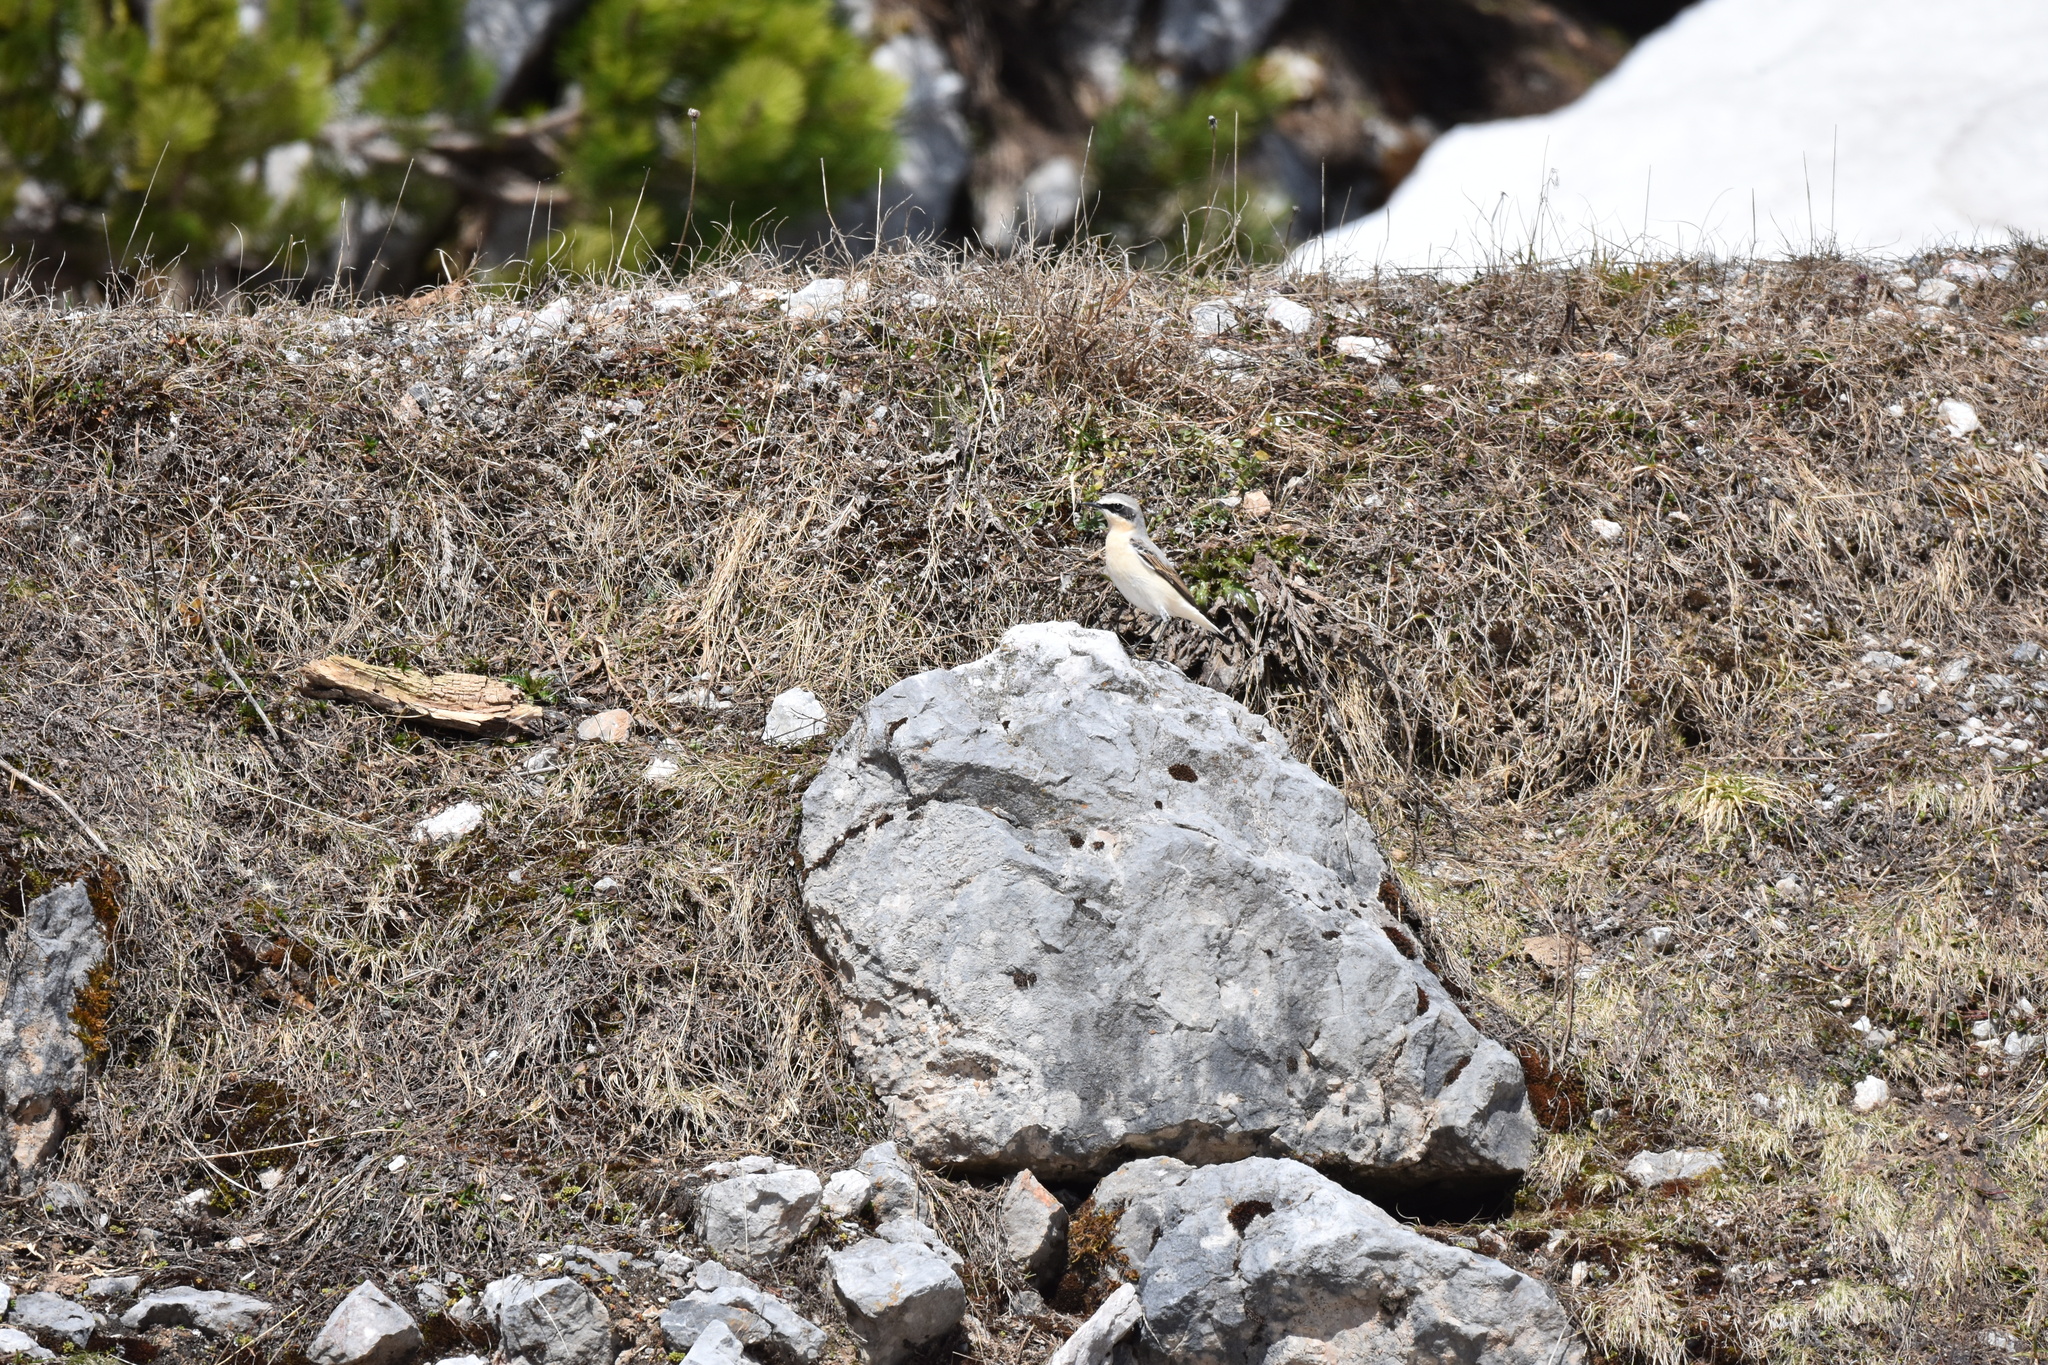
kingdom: Animalia
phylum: Chordata
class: Aves
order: Passeriformes
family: Muscicapidae
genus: Oenanthe
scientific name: Oenanthe oenanthe
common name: Northern wheatear
